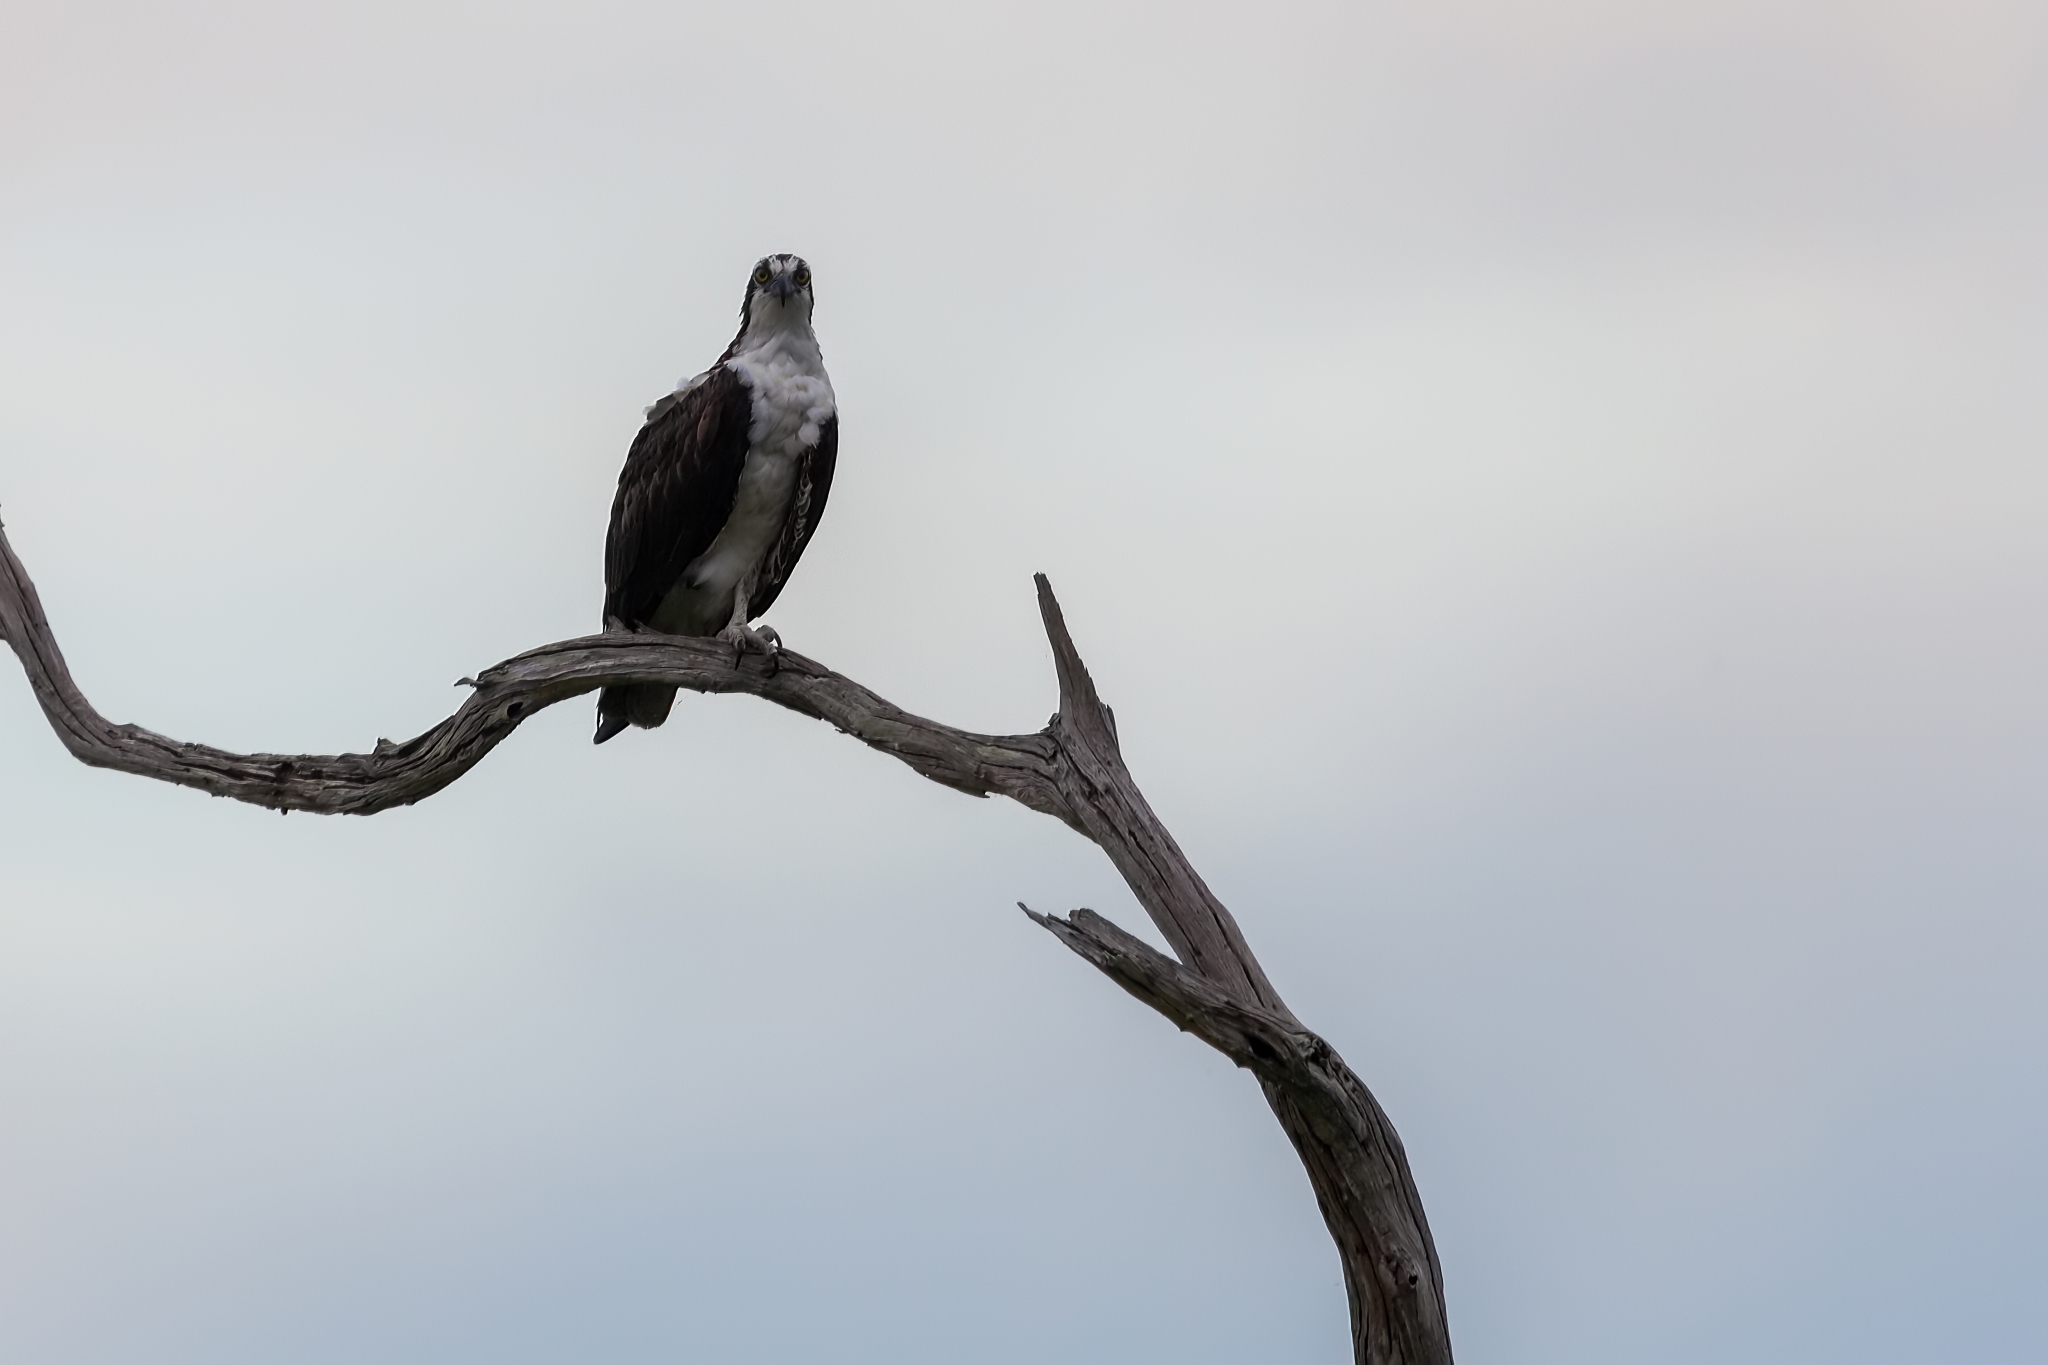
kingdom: Animalia
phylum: Chordata
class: Aves
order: Accipitriformes
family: Pandionidae
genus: Pandion
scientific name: Pandion haliaetus
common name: Osprey
